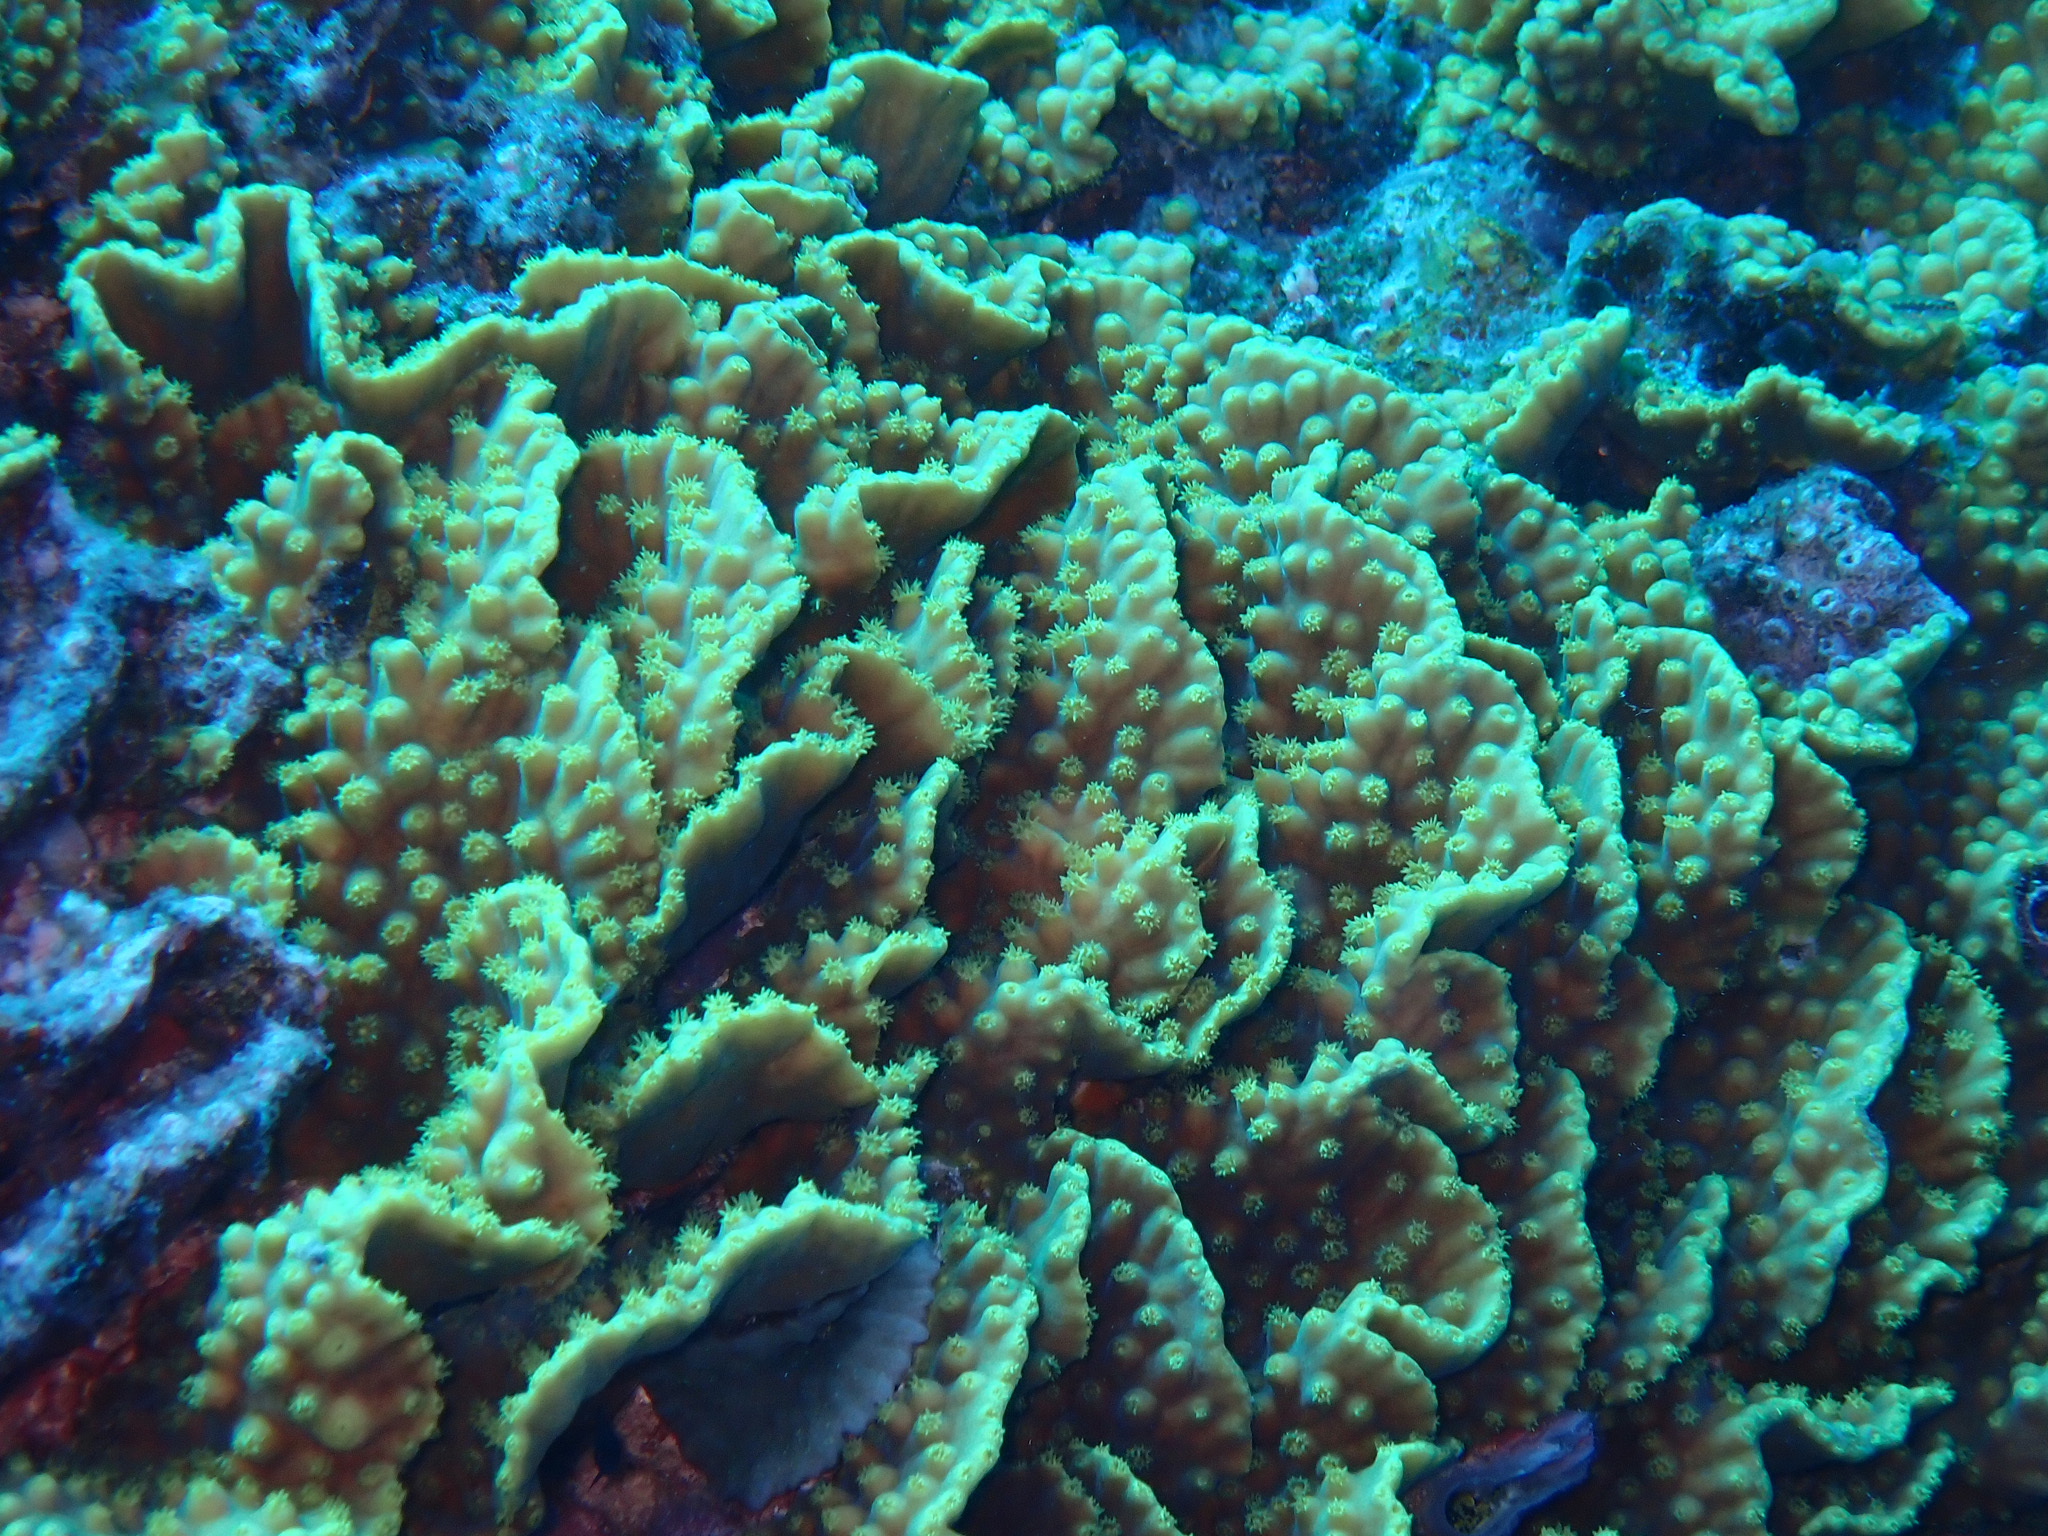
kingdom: Animalia
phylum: Cnidaria
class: Anthozoa
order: Scleractinia
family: Dendrophylliidae
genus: Turbinaria
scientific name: Turbinaria reniformis
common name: Disc coral
